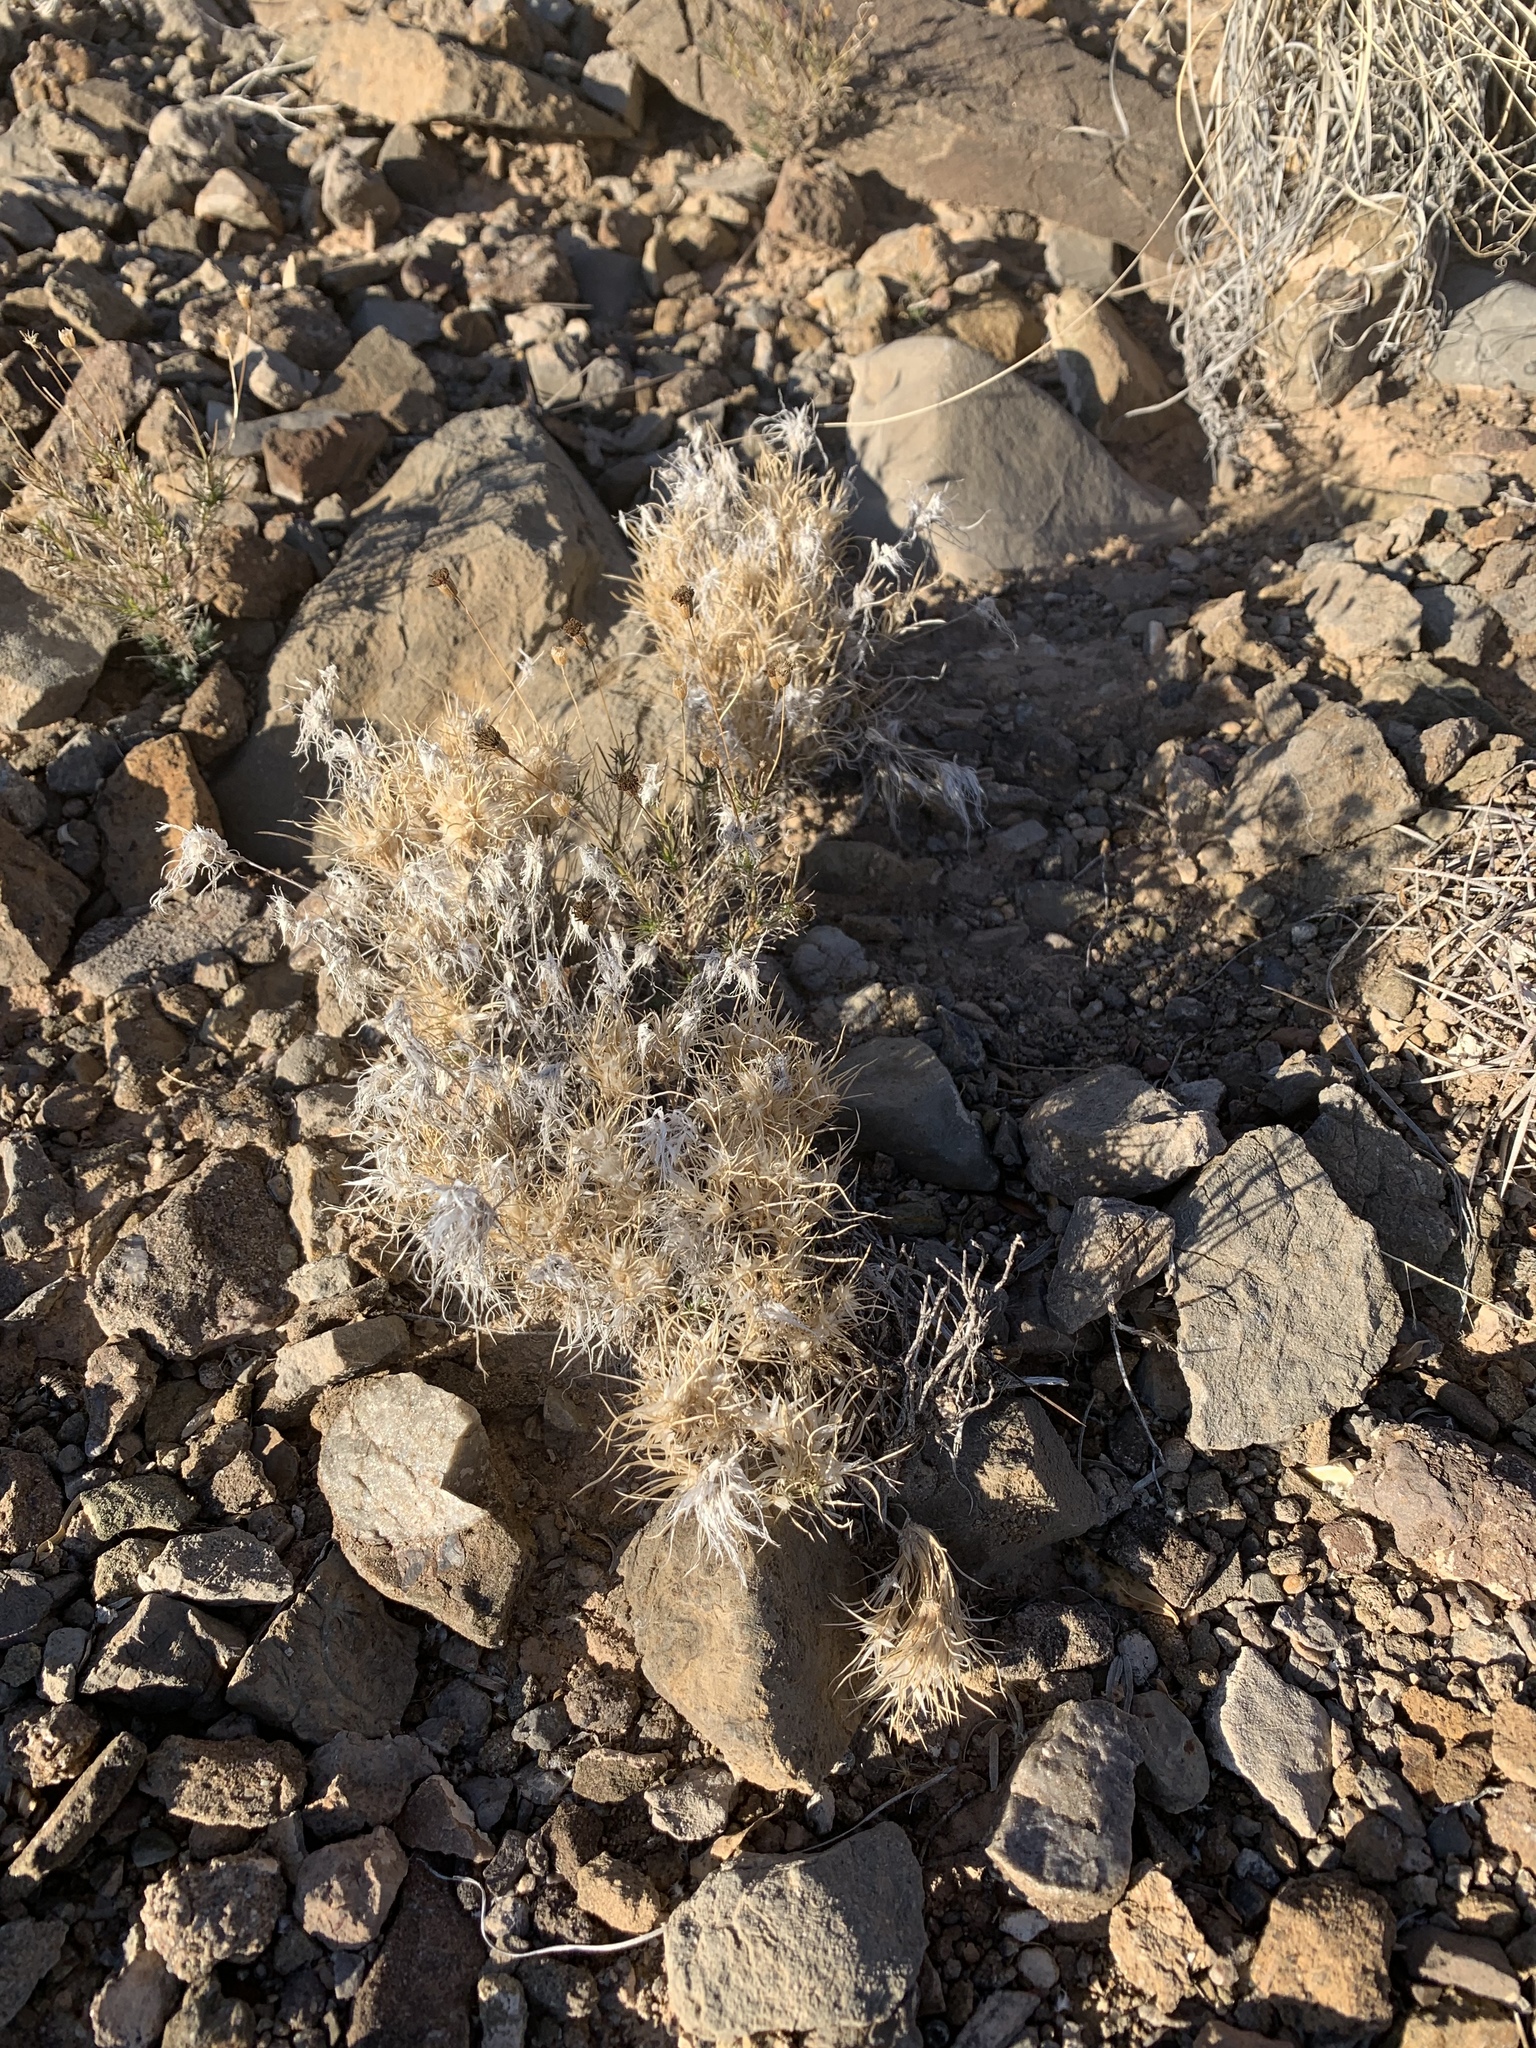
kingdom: Plantae
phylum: Tracheophyta
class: Liliopsida
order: Poales
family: Poaceae
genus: Dasyochloa
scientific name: Dasyochloa pulchella
